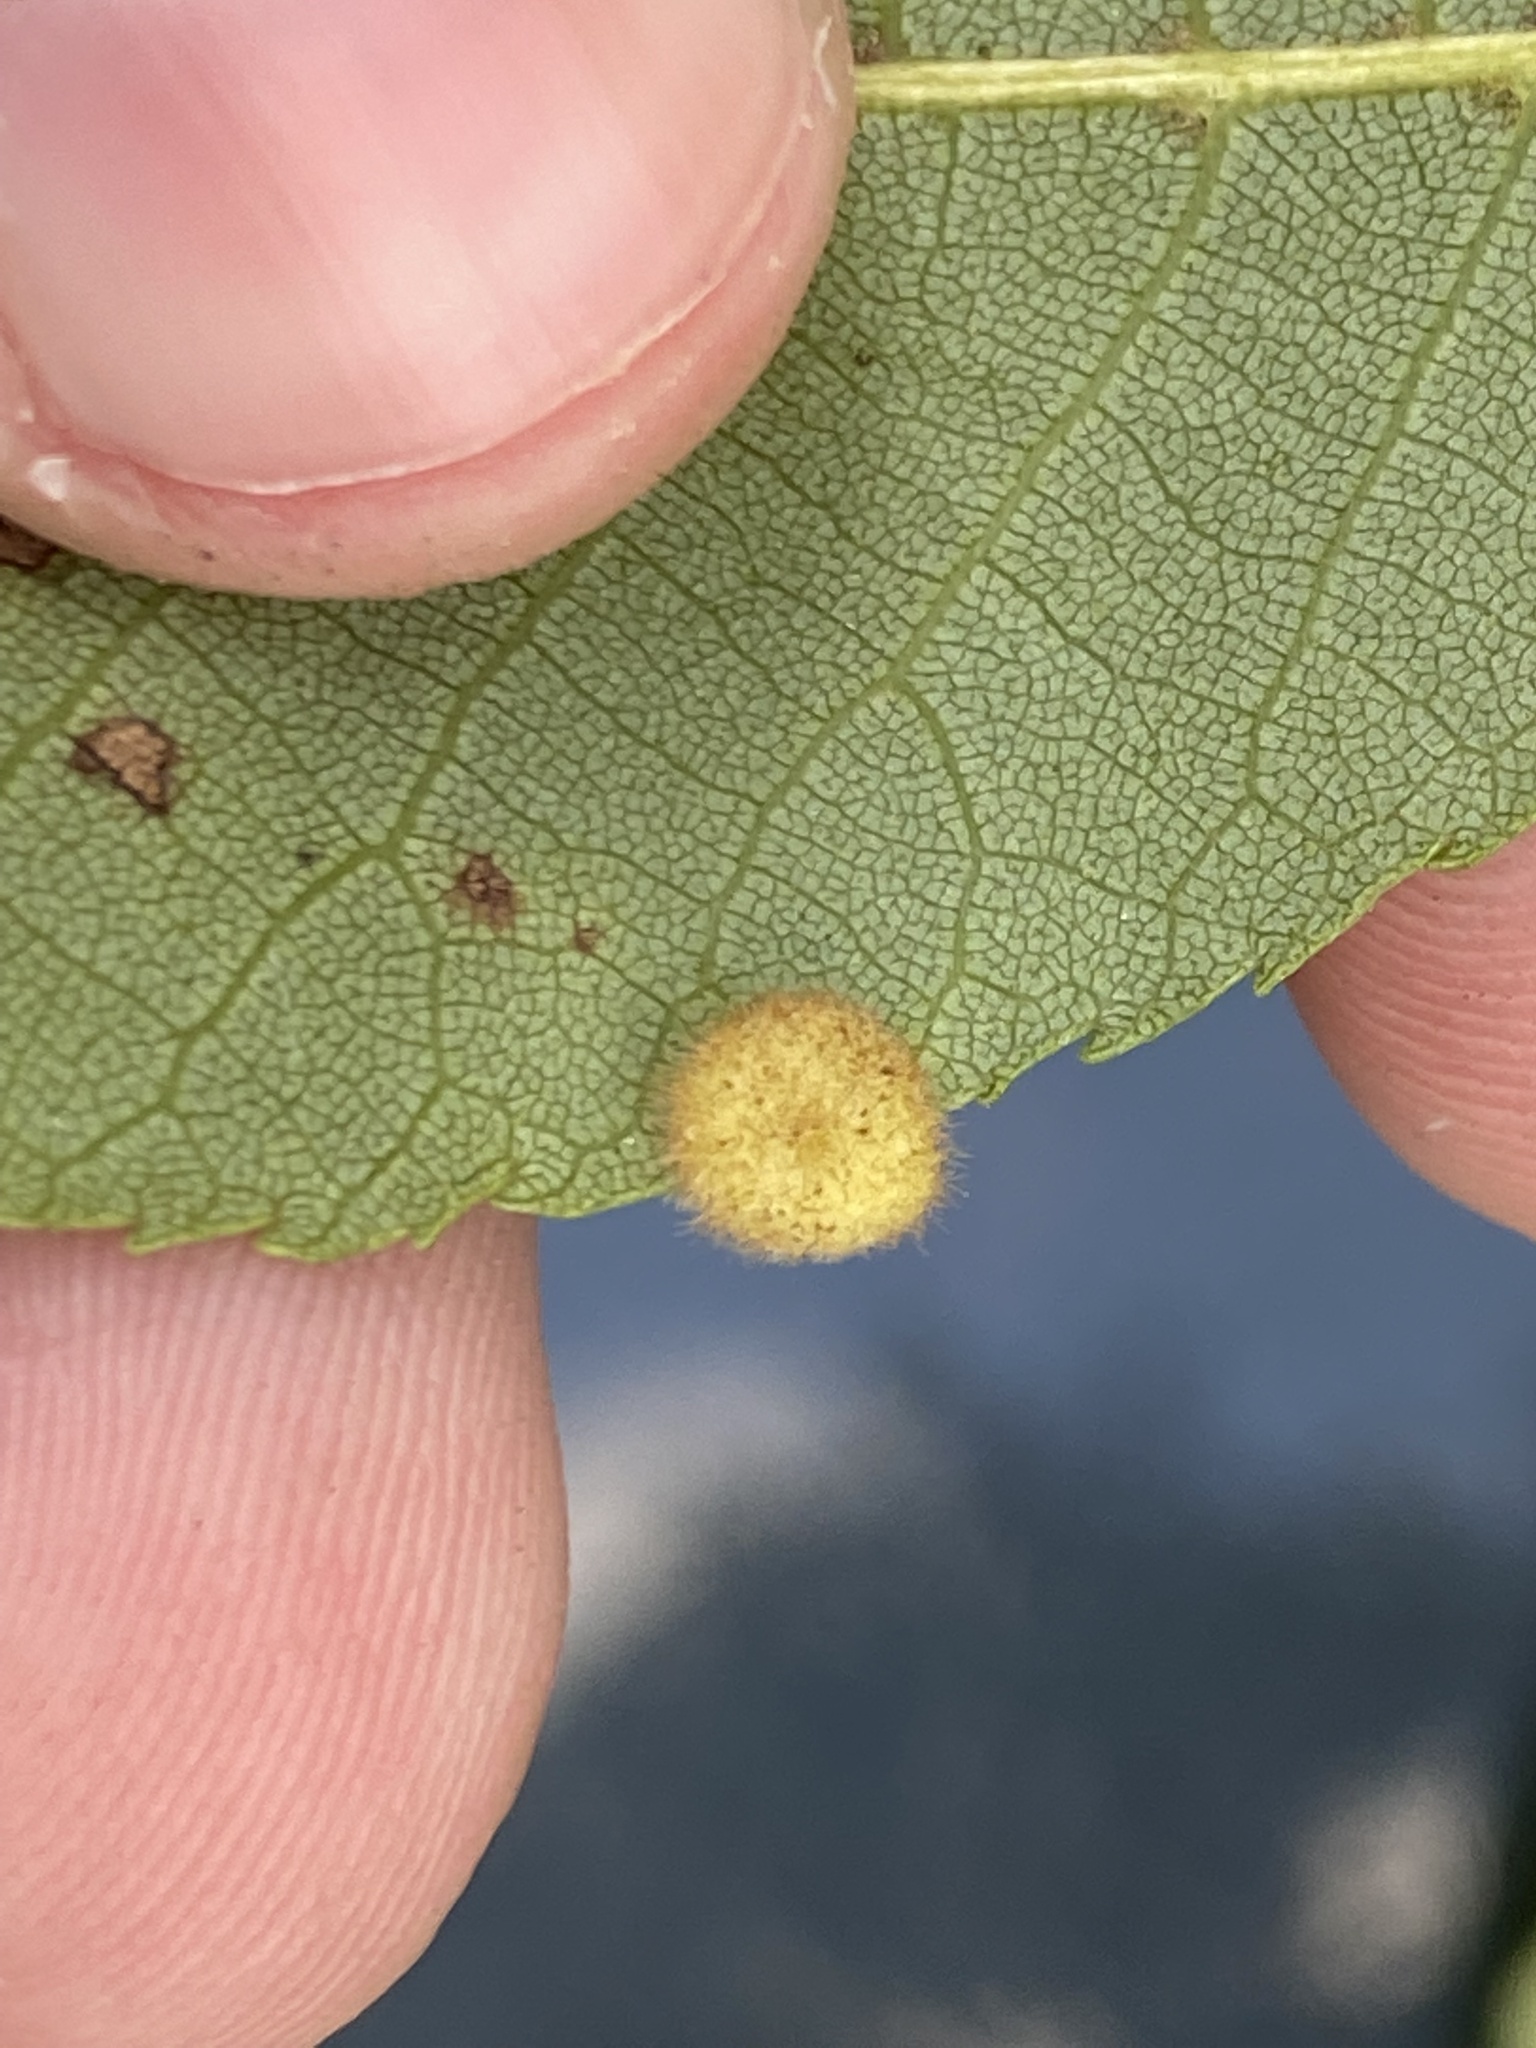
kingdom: Animalia
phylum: Arthropoda
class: Insecta
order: Diptera
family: Cecidomyiidae
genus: Caryomyia
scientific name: Caryomyia thompsoni
